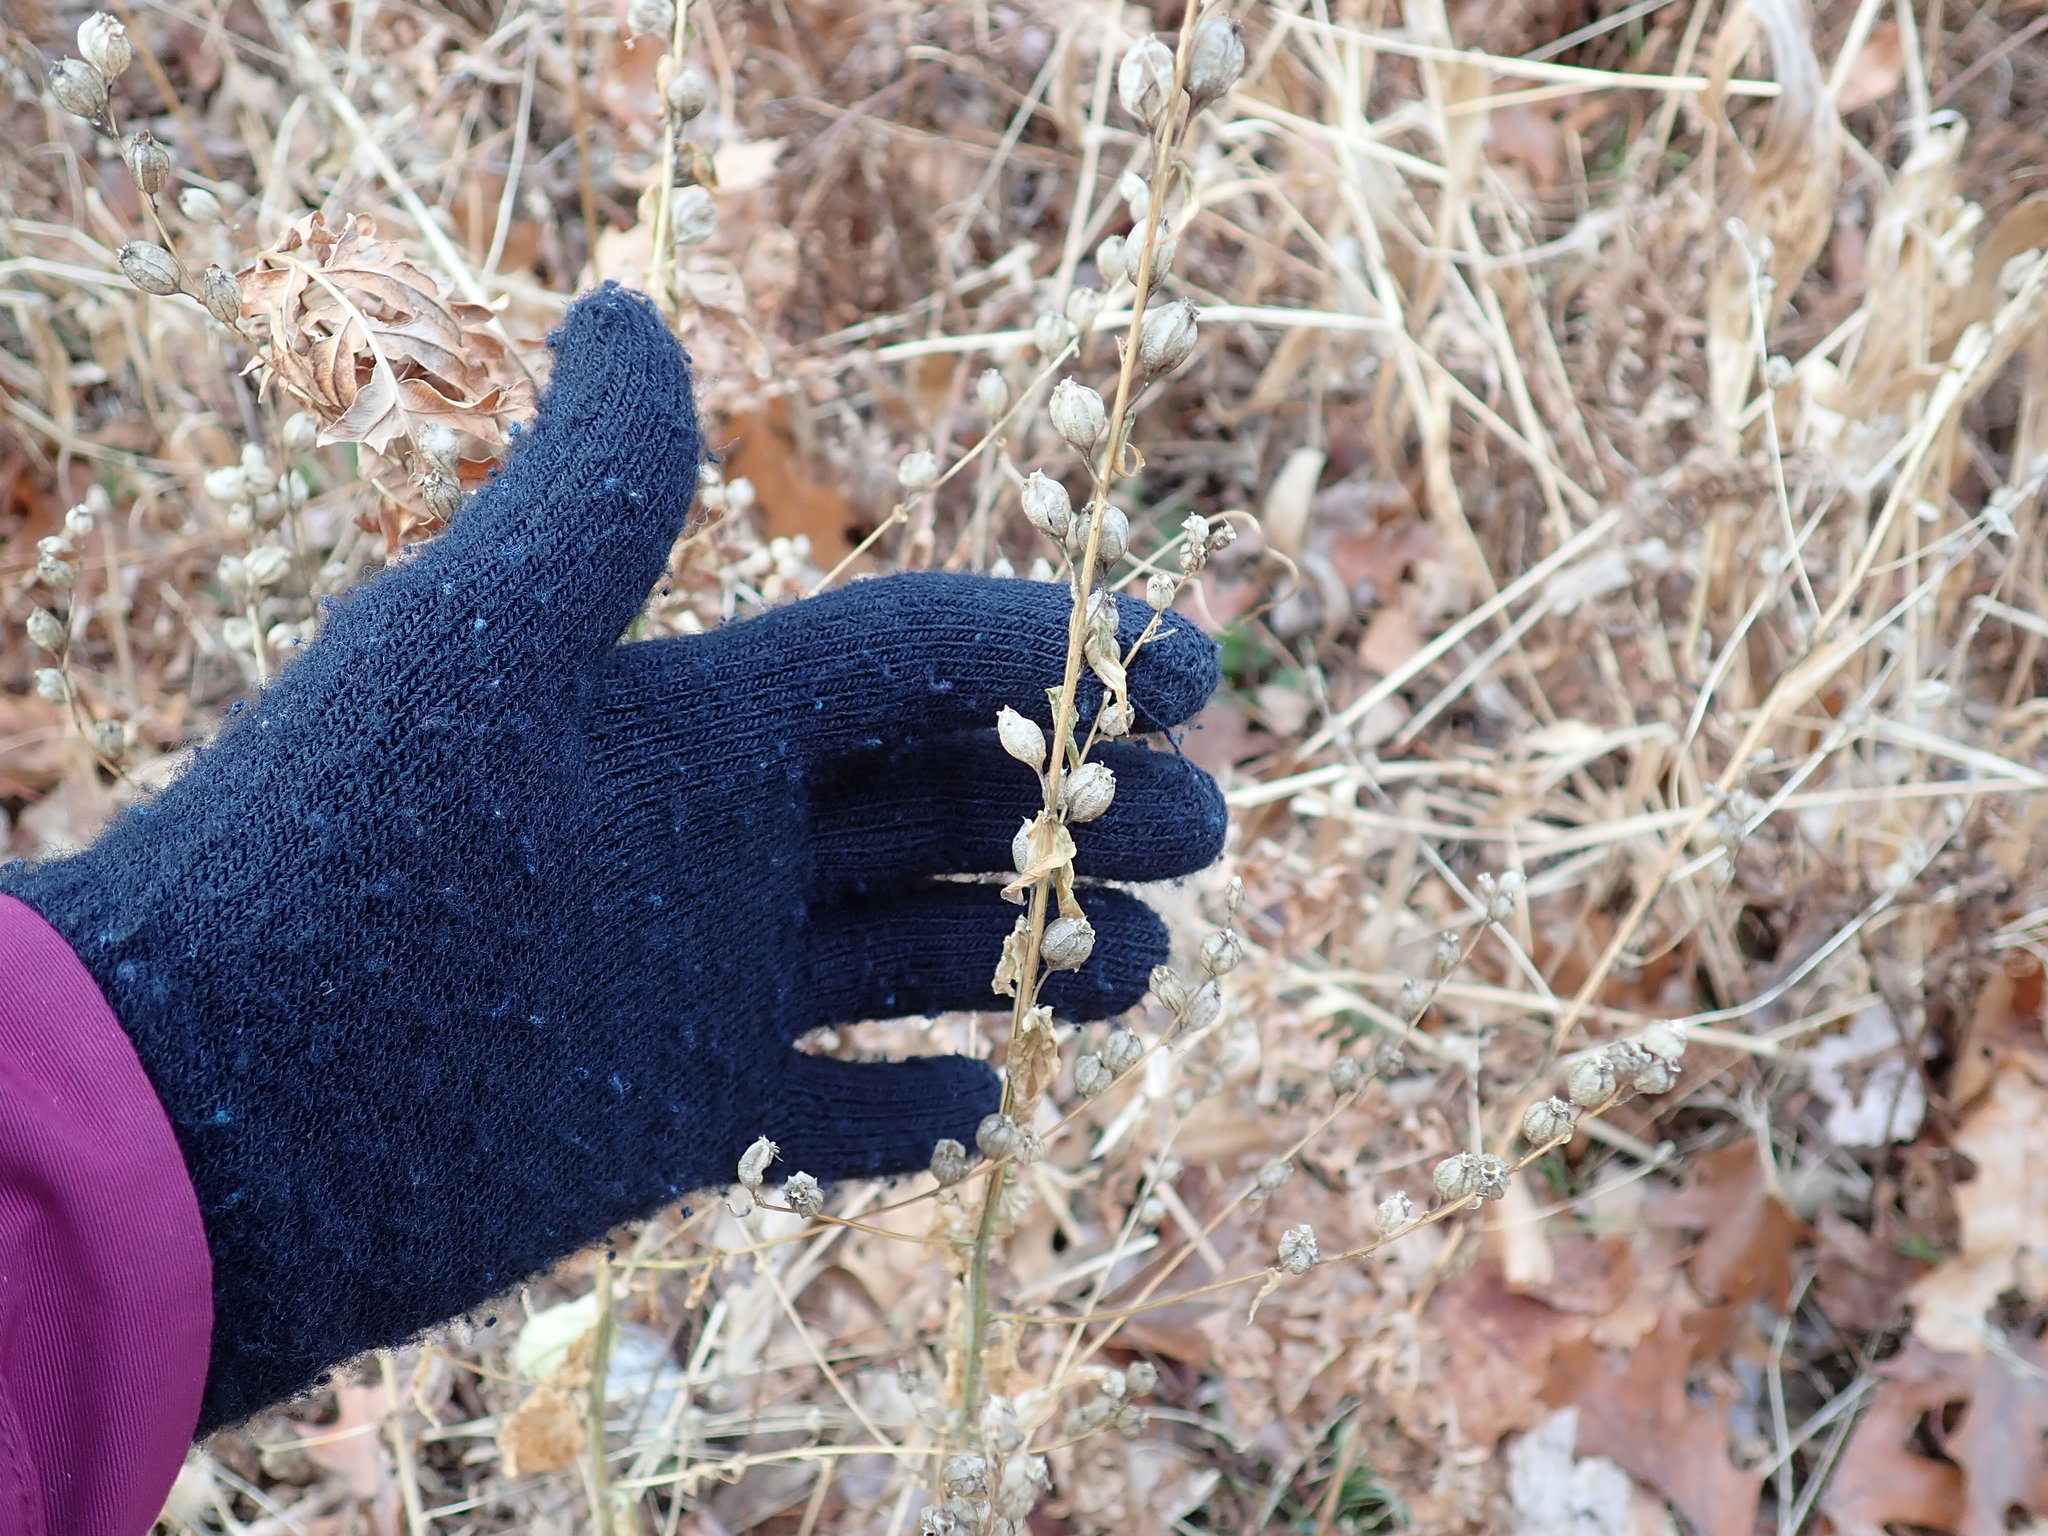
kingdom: Plantae
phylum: Tracheophyta
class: Magnoliopsida
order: Asterales
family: Campanulaceae
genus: Lobelia
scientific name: Lobelia inflata
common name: Indian tobacco
